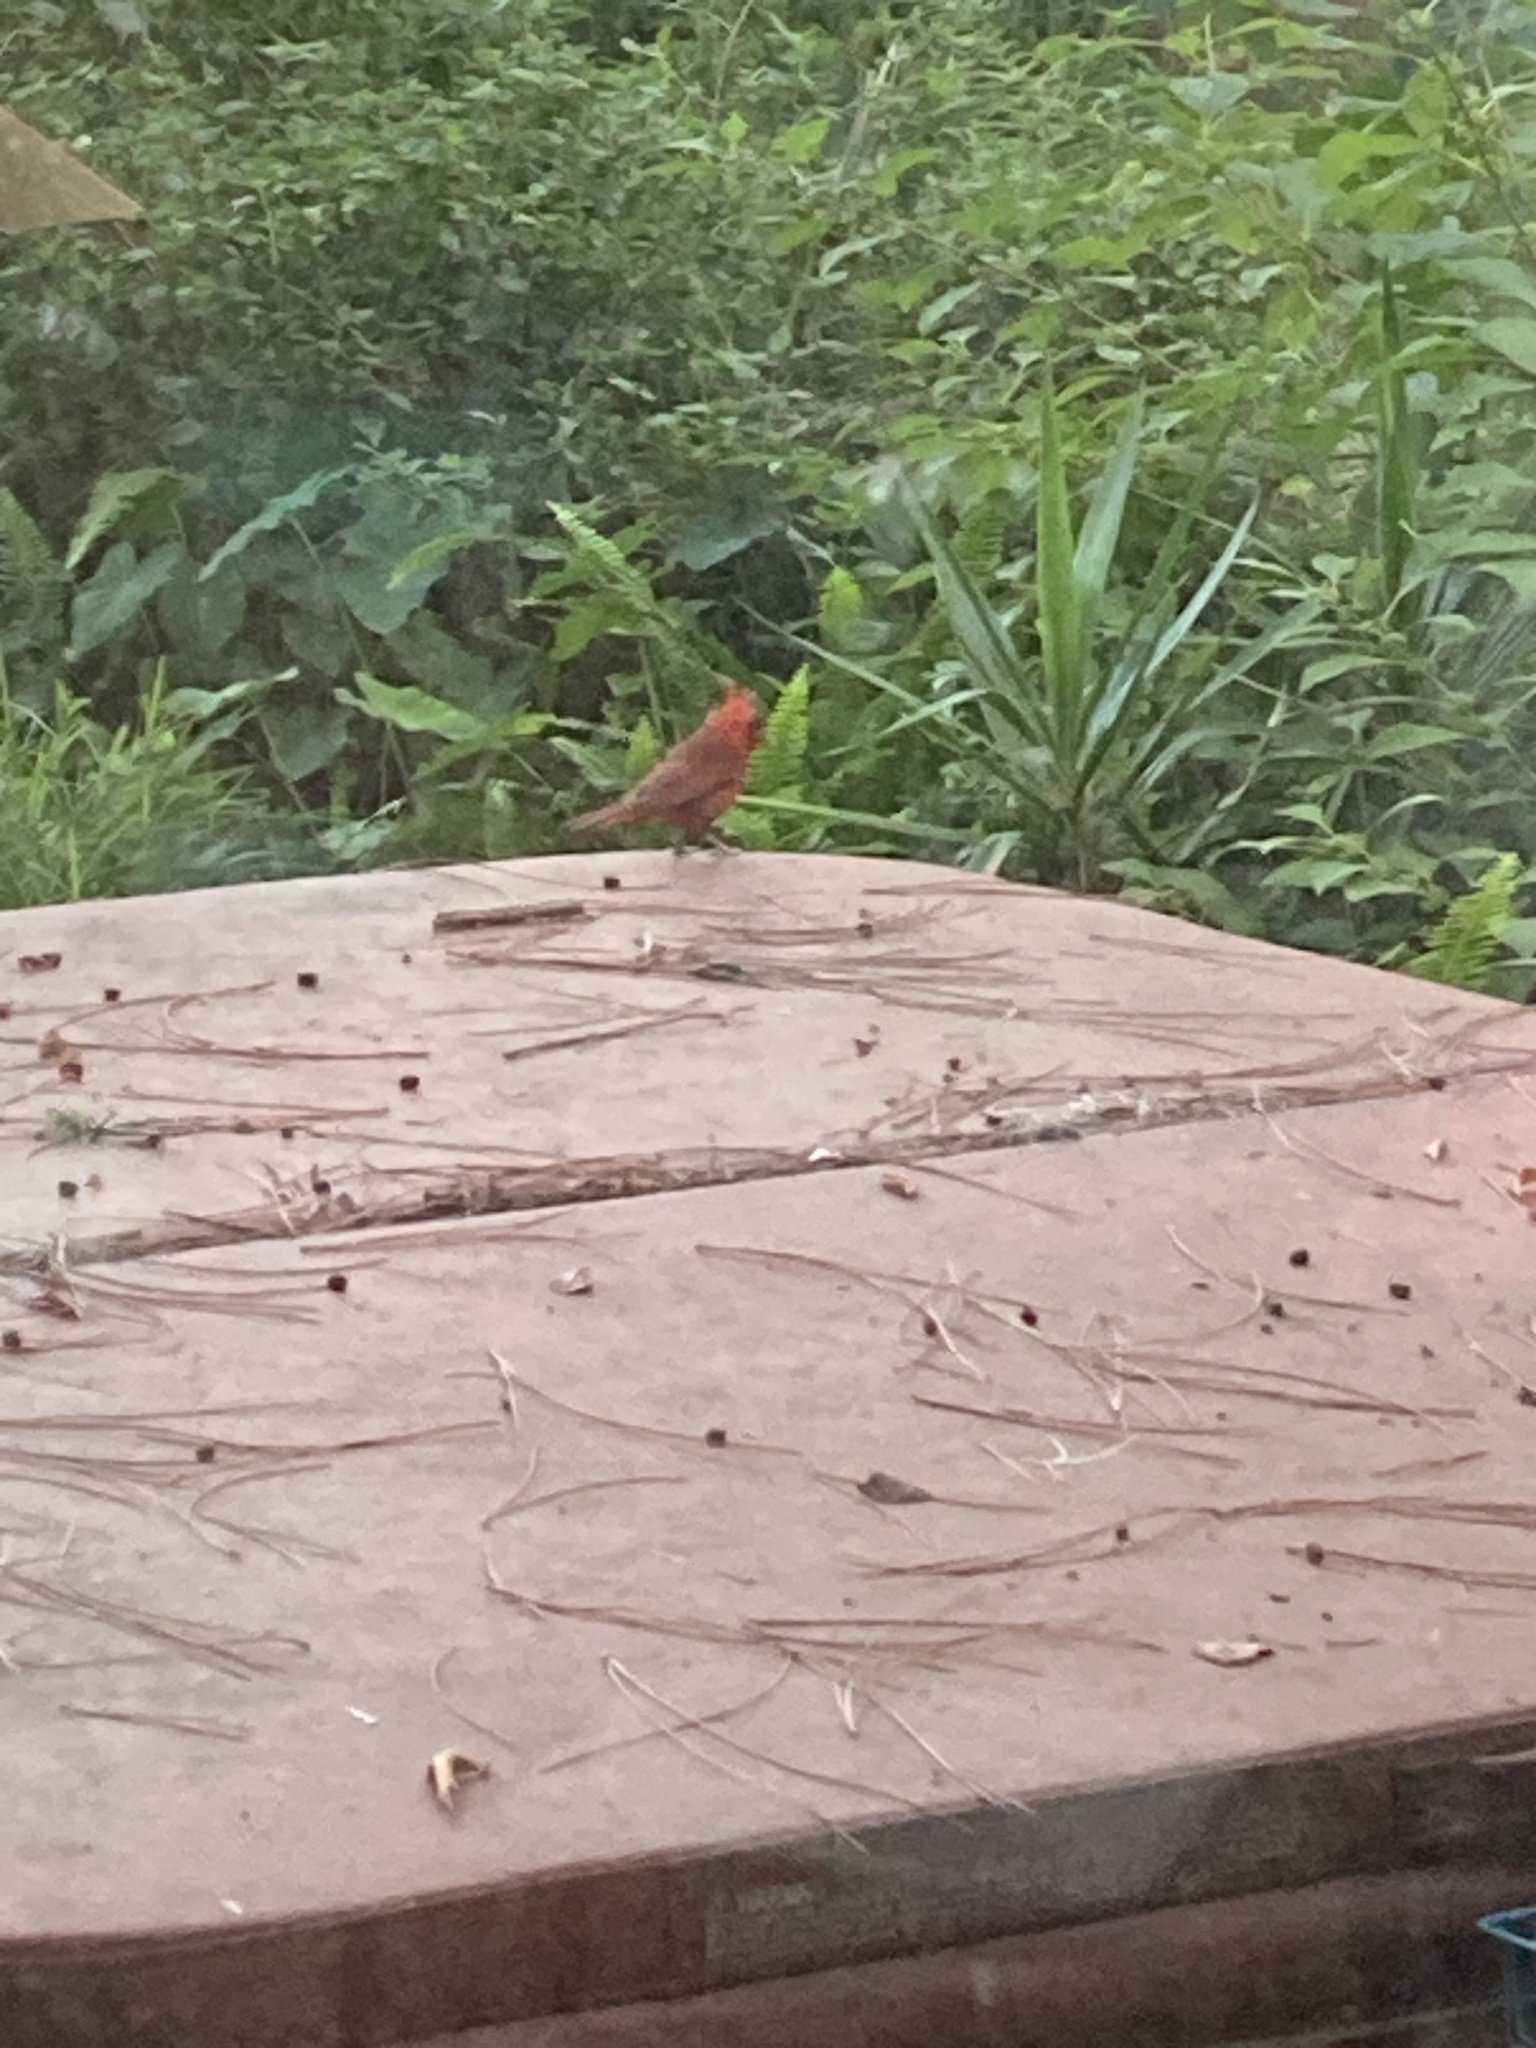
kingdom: Animalia
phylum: Chordata
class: Aves
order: Passeriformes
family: Cardinalidae
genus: Cardinalis
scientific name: Cardinalis cardinalis
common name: Northern cardinal
